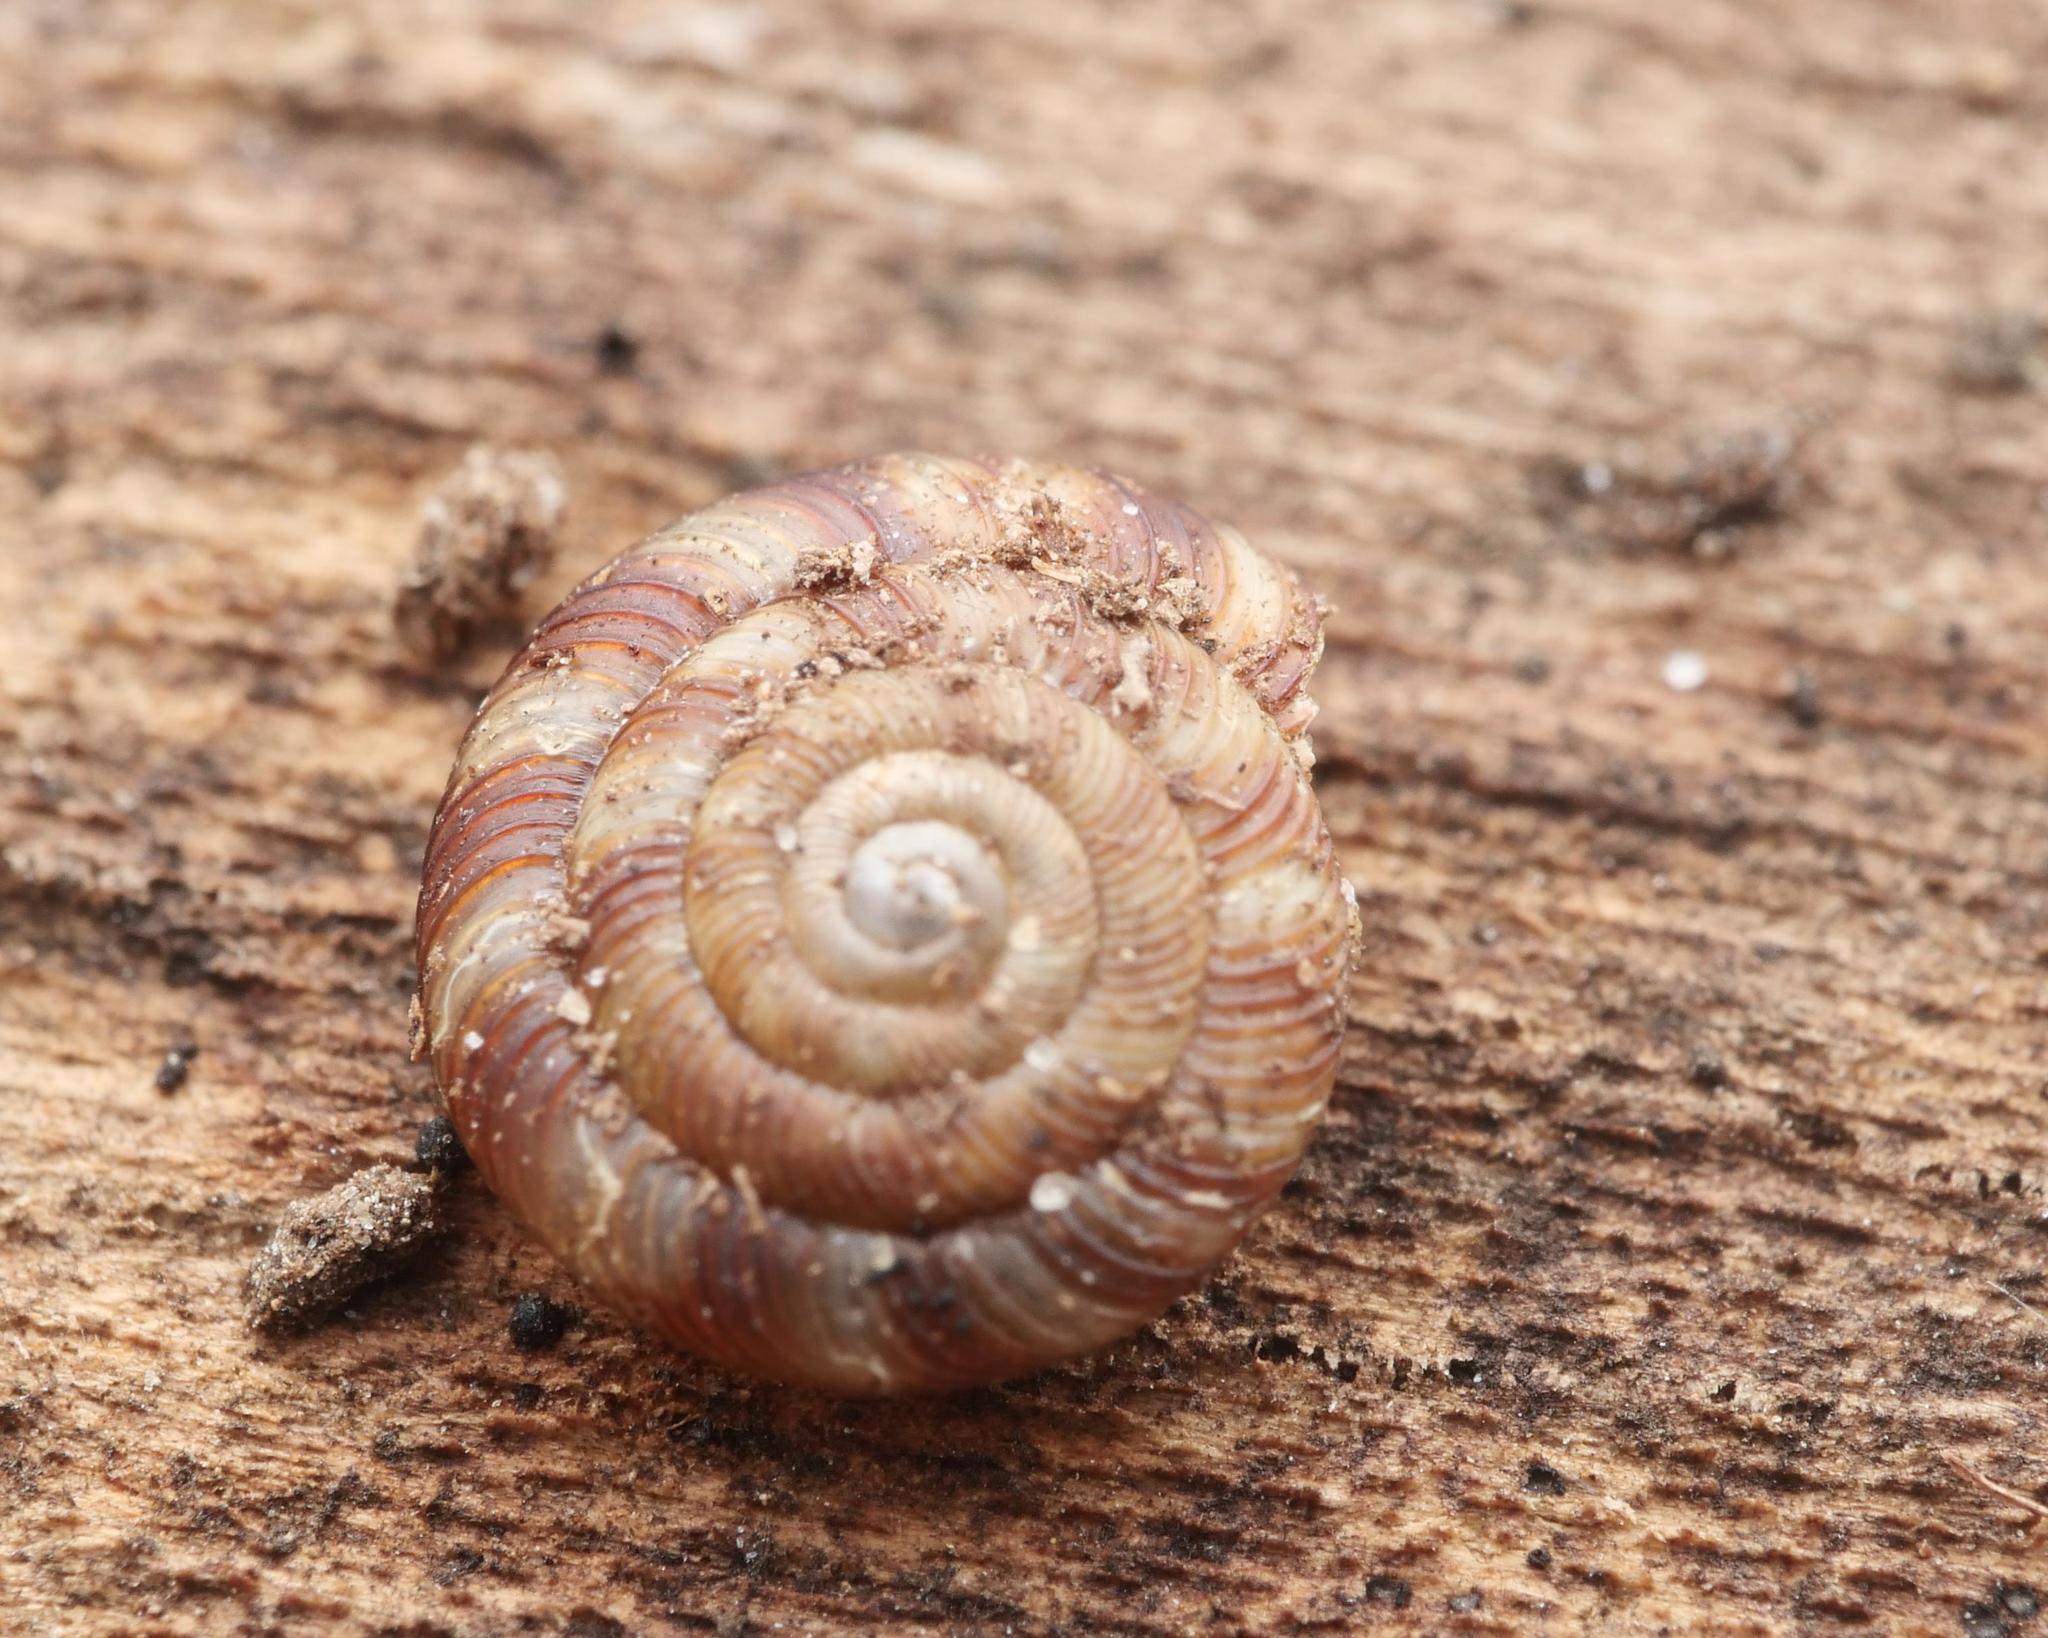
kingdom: Animalia
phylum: Mollusca
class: Gastropoda
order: Stylommatophora
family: Discidae
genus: Discus
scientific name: Discus rotundatus
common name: Rounded snail
